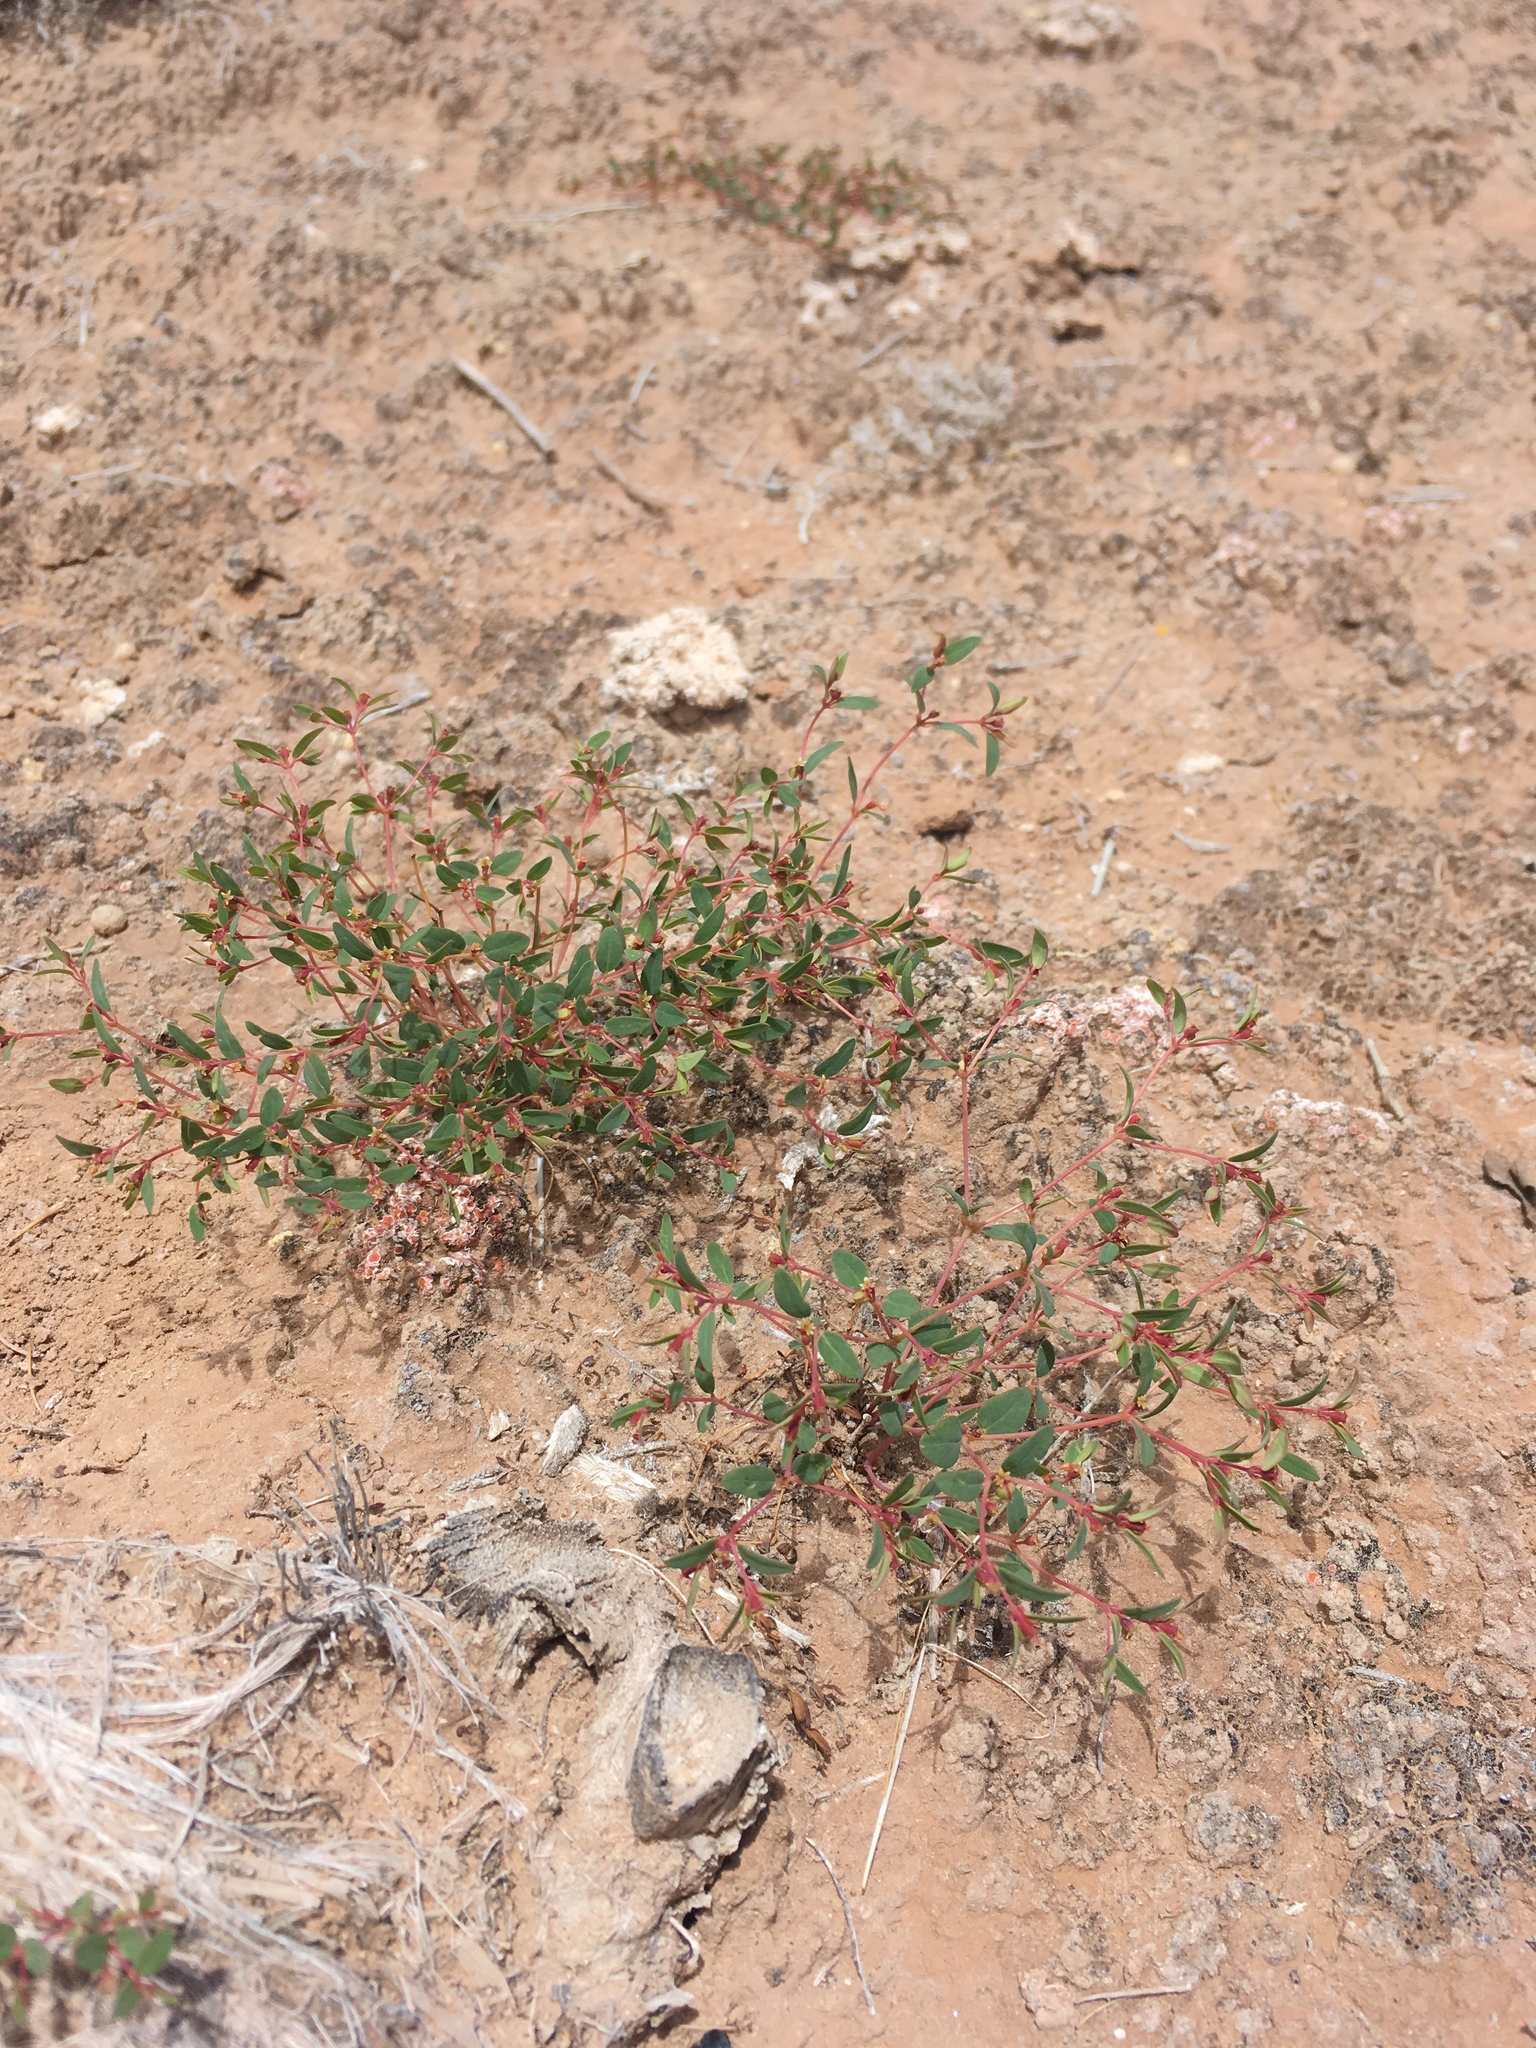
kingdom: Plantae
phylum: Tracheophyta
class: Magnoliopsida
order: Malpighiales
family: Euphorbiaceae
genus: Euphorbia
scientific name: Euphorbia fendleri
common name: Fendler's euphorbia
